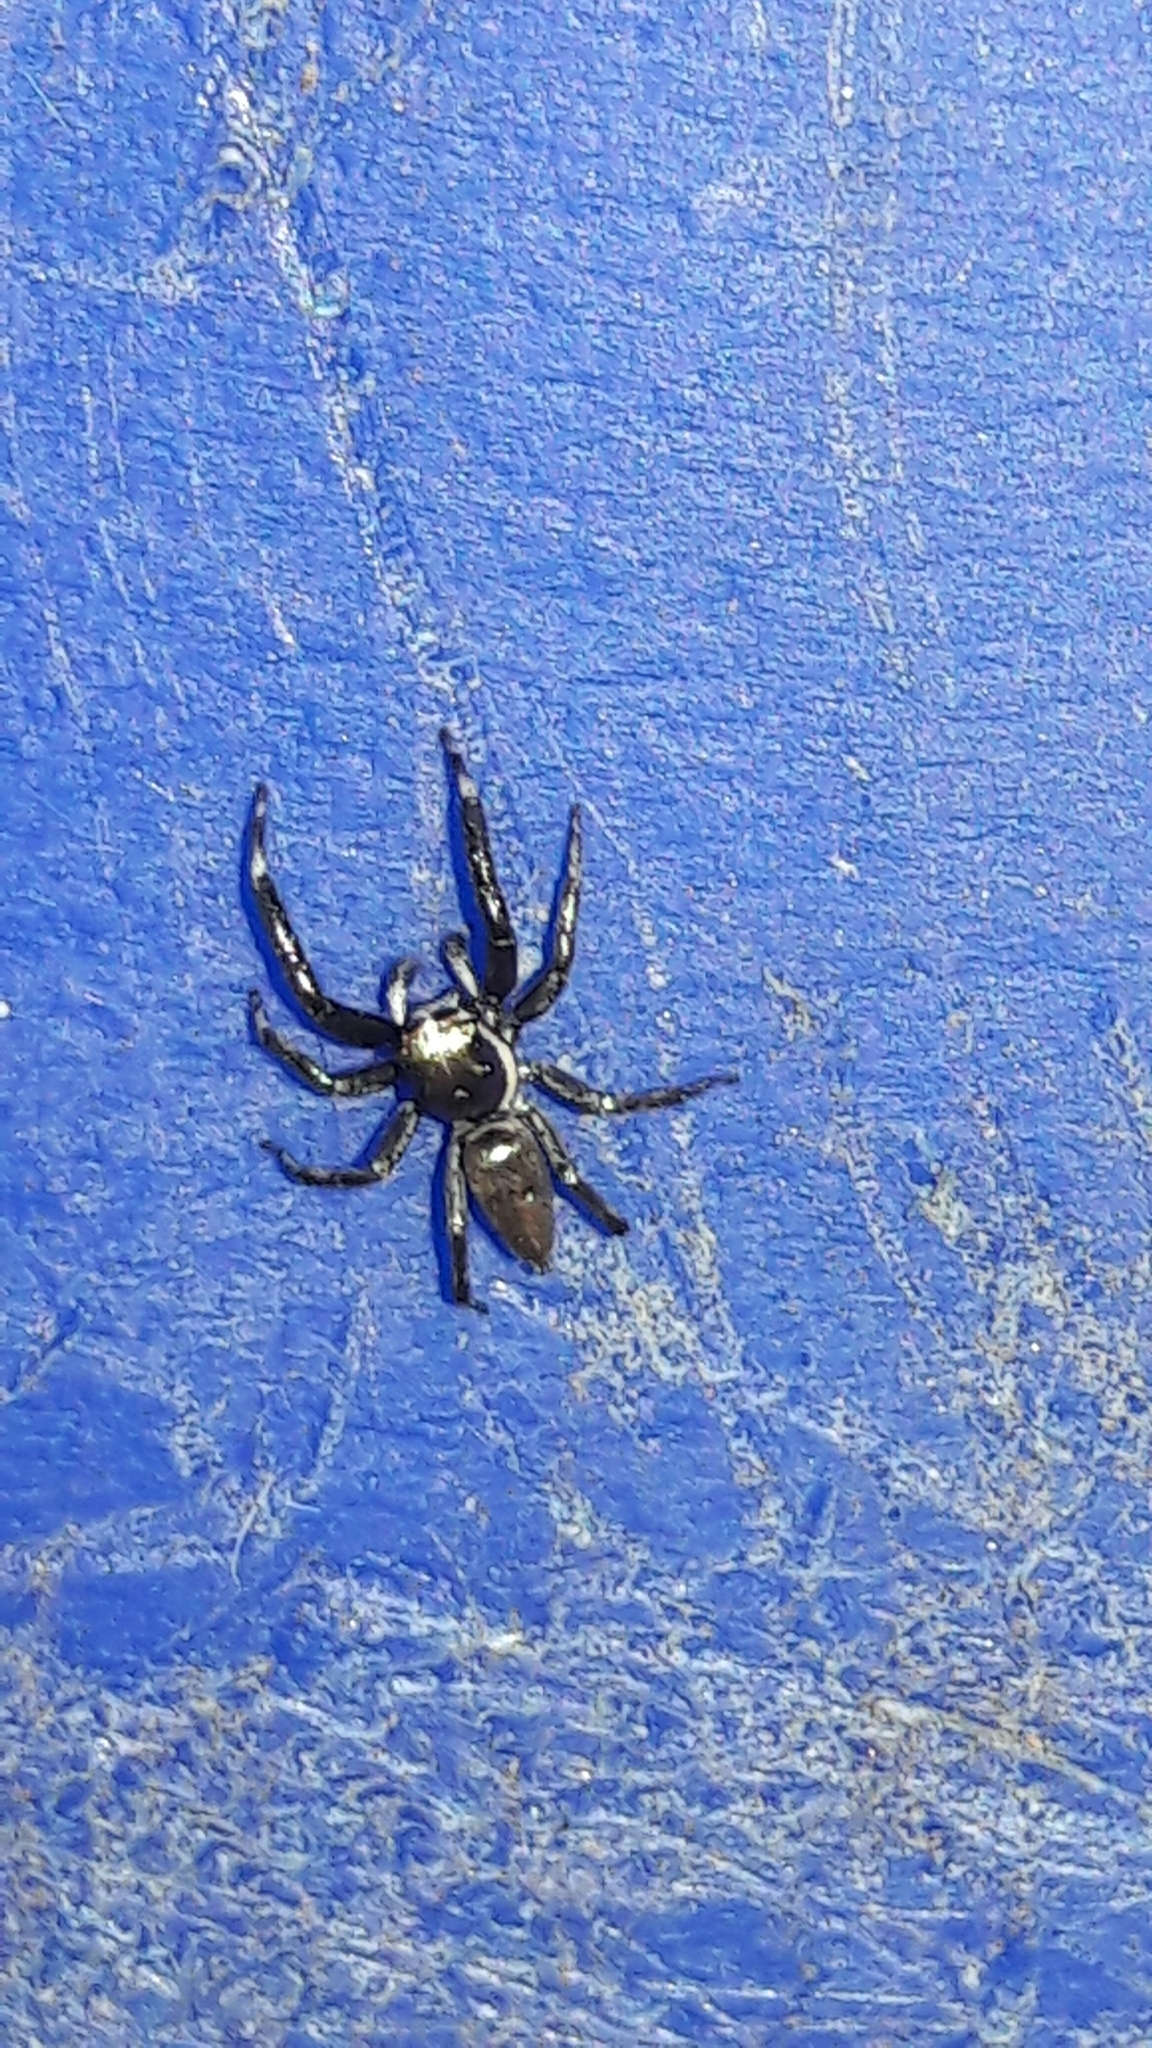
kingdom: Animalia
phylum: Arthropoda
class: Arachnida
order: Araneae
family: Salticidae
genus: Philira
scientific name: Philira micans
